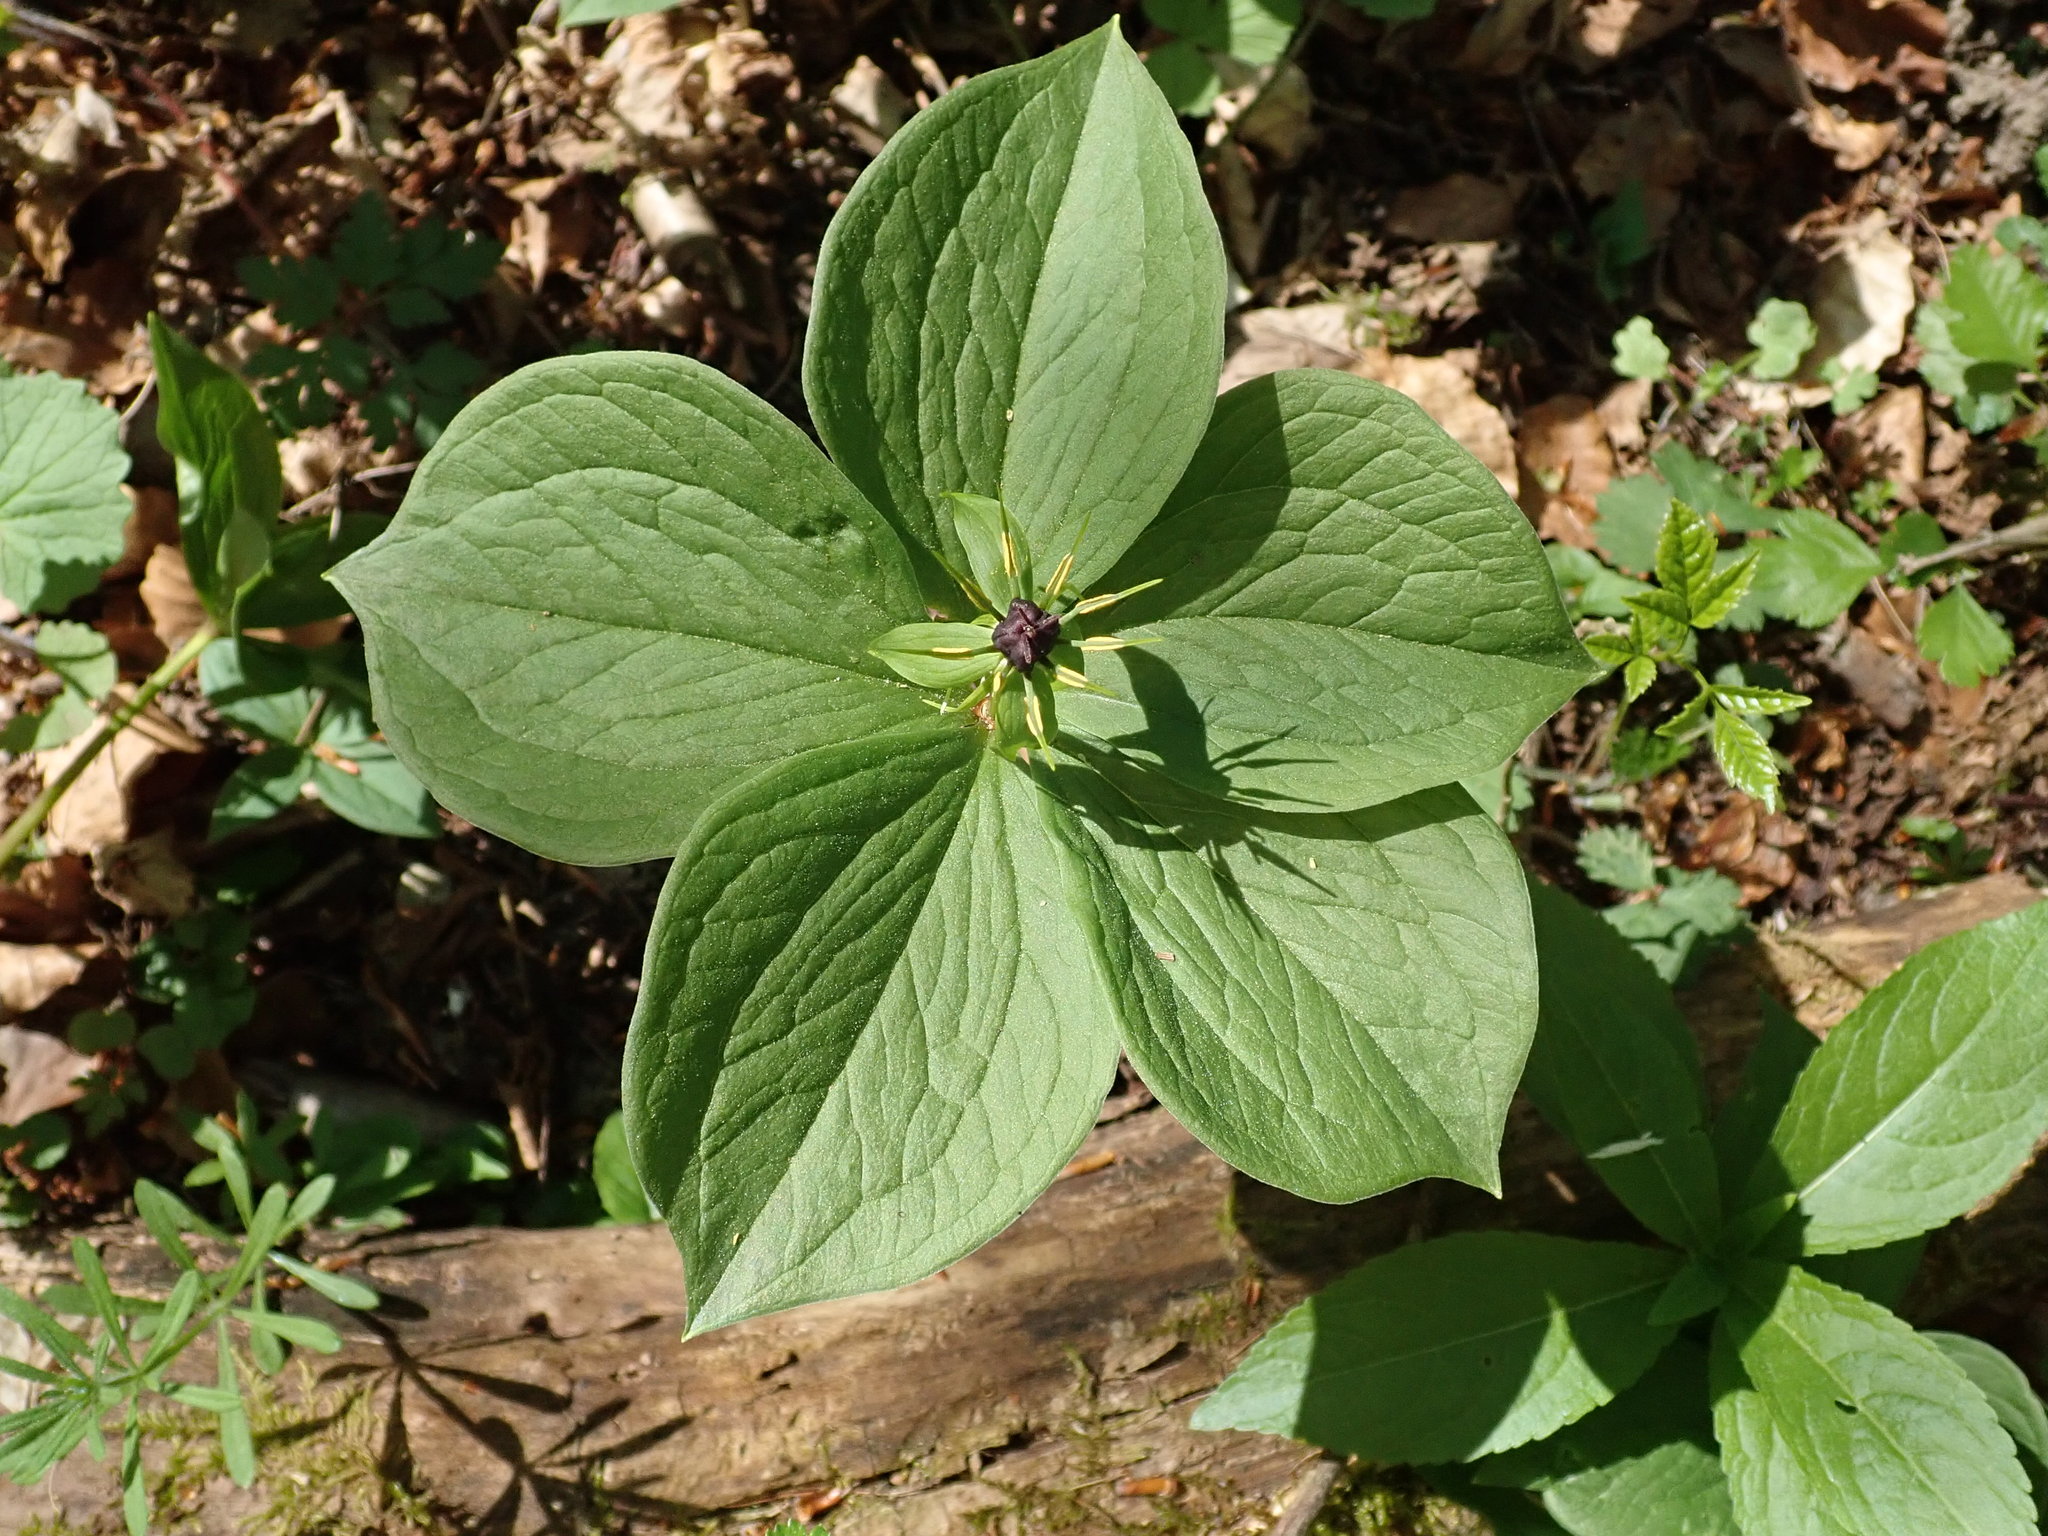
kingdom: Plantae
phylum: Tracheophyta
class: Liliopsida
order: Liliales
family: Melanthiaceae
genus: Paris
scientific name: Paris quadrifolia
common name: Herb-paris
